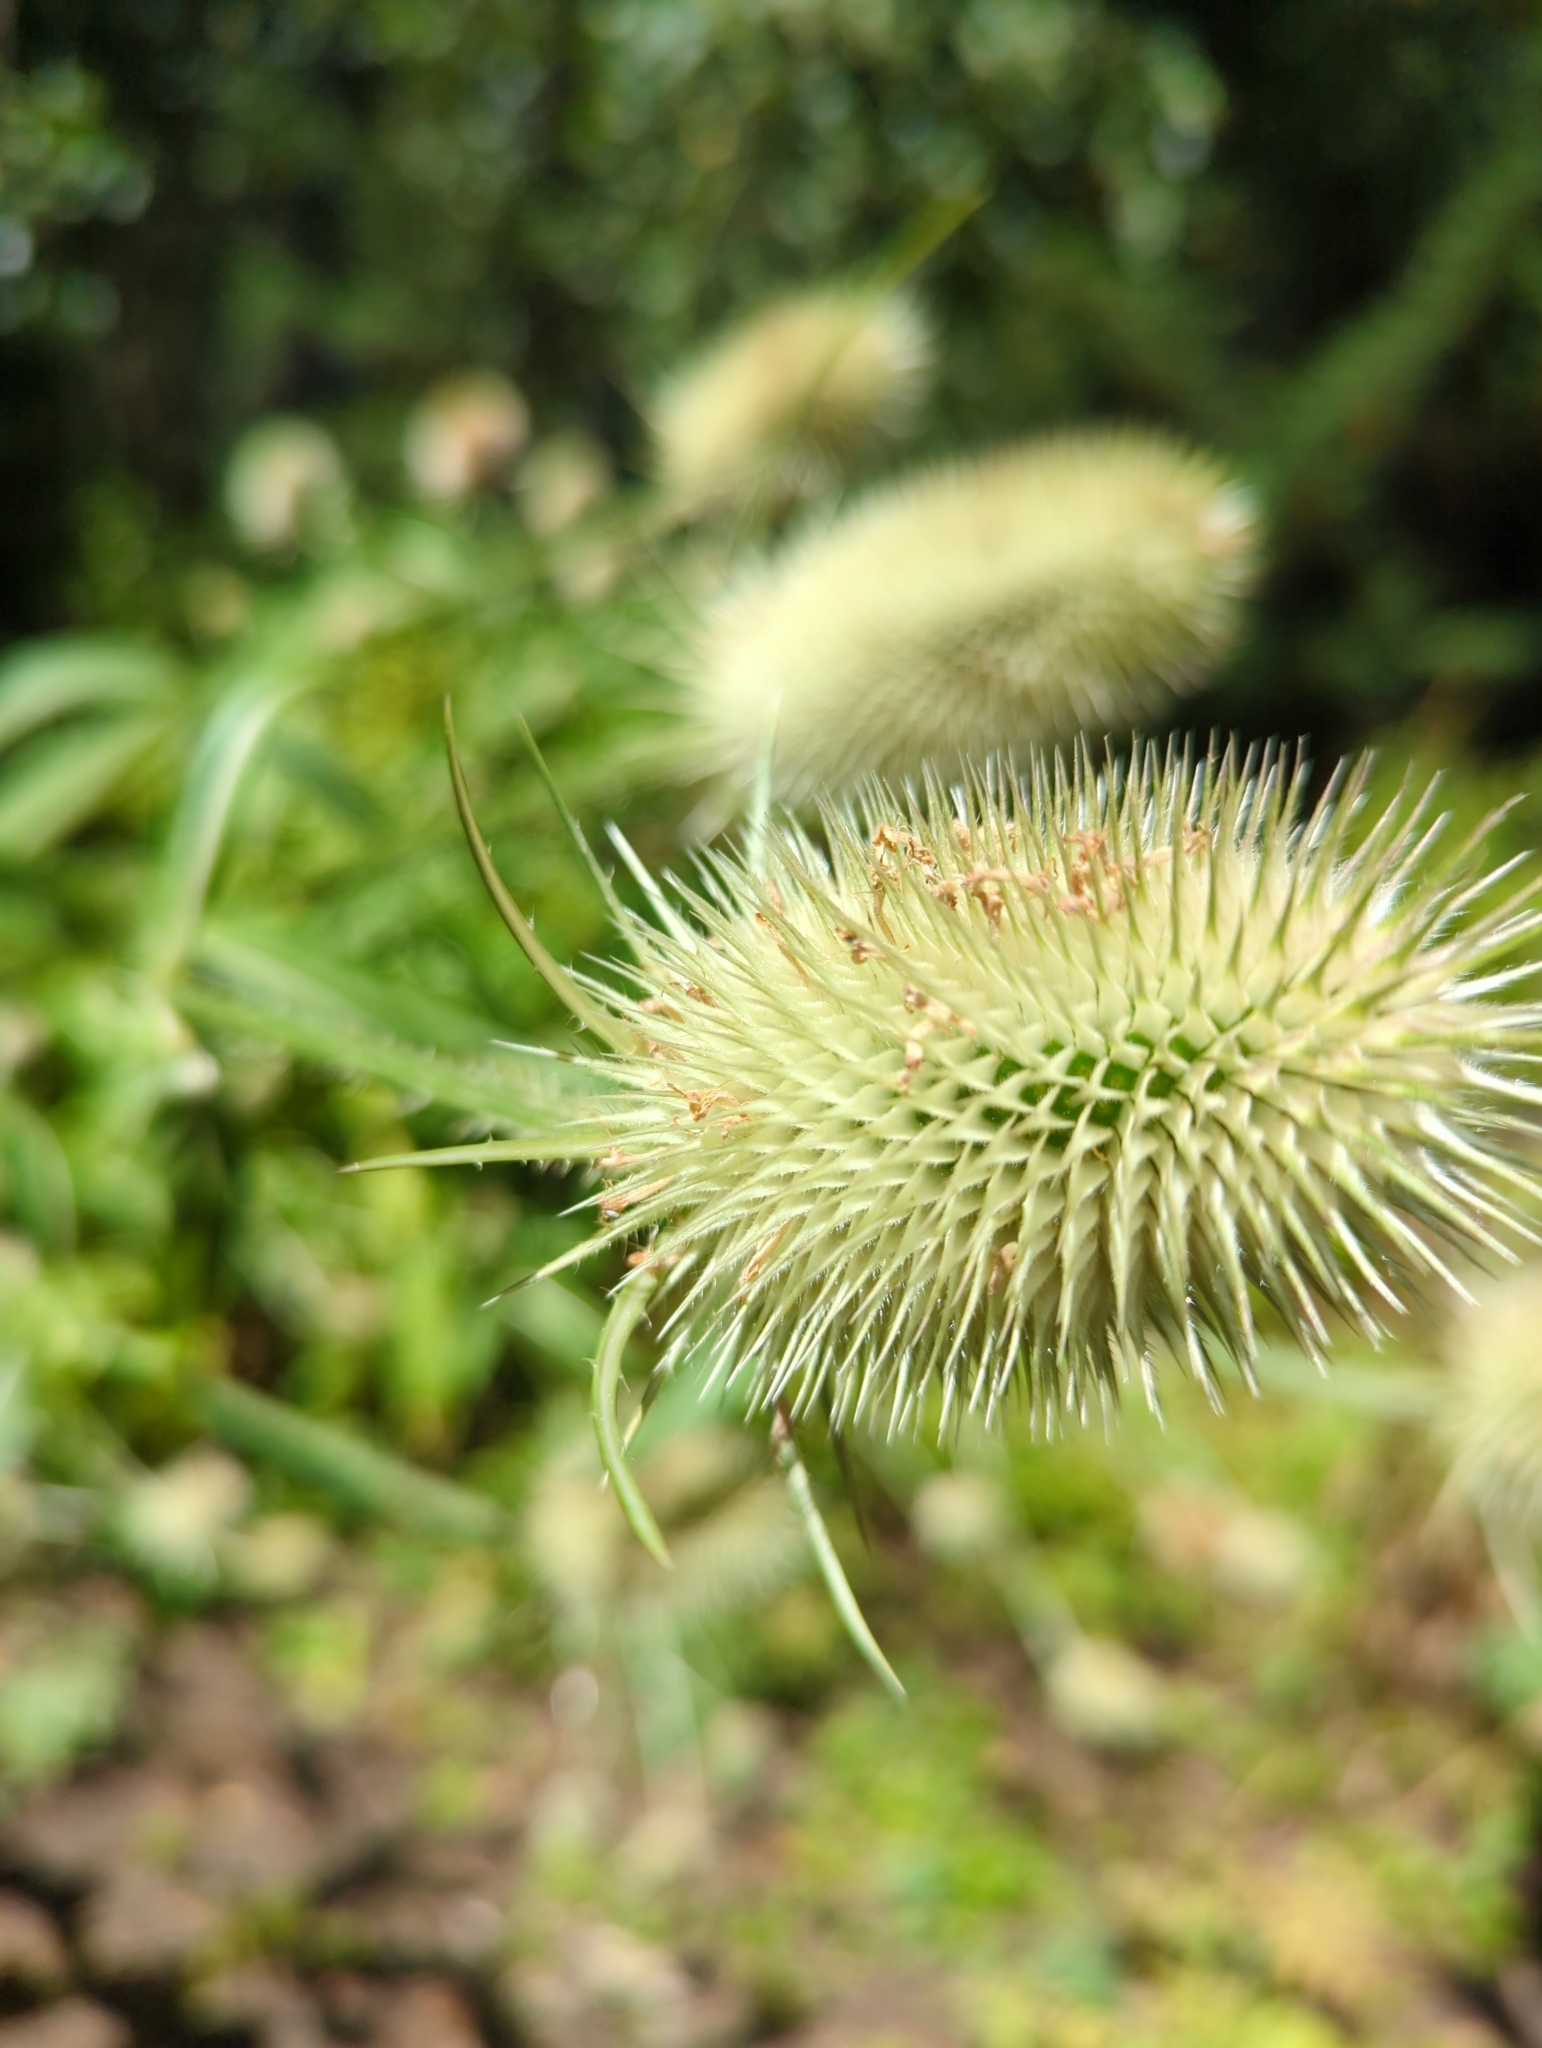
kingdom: Plantae
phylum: Tracheophyta
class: Magnoliopsida
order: Dipsacales
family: Caprifoliaceae
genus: Dipsacus
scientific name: Dipsacus fullonum
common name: Teasel
